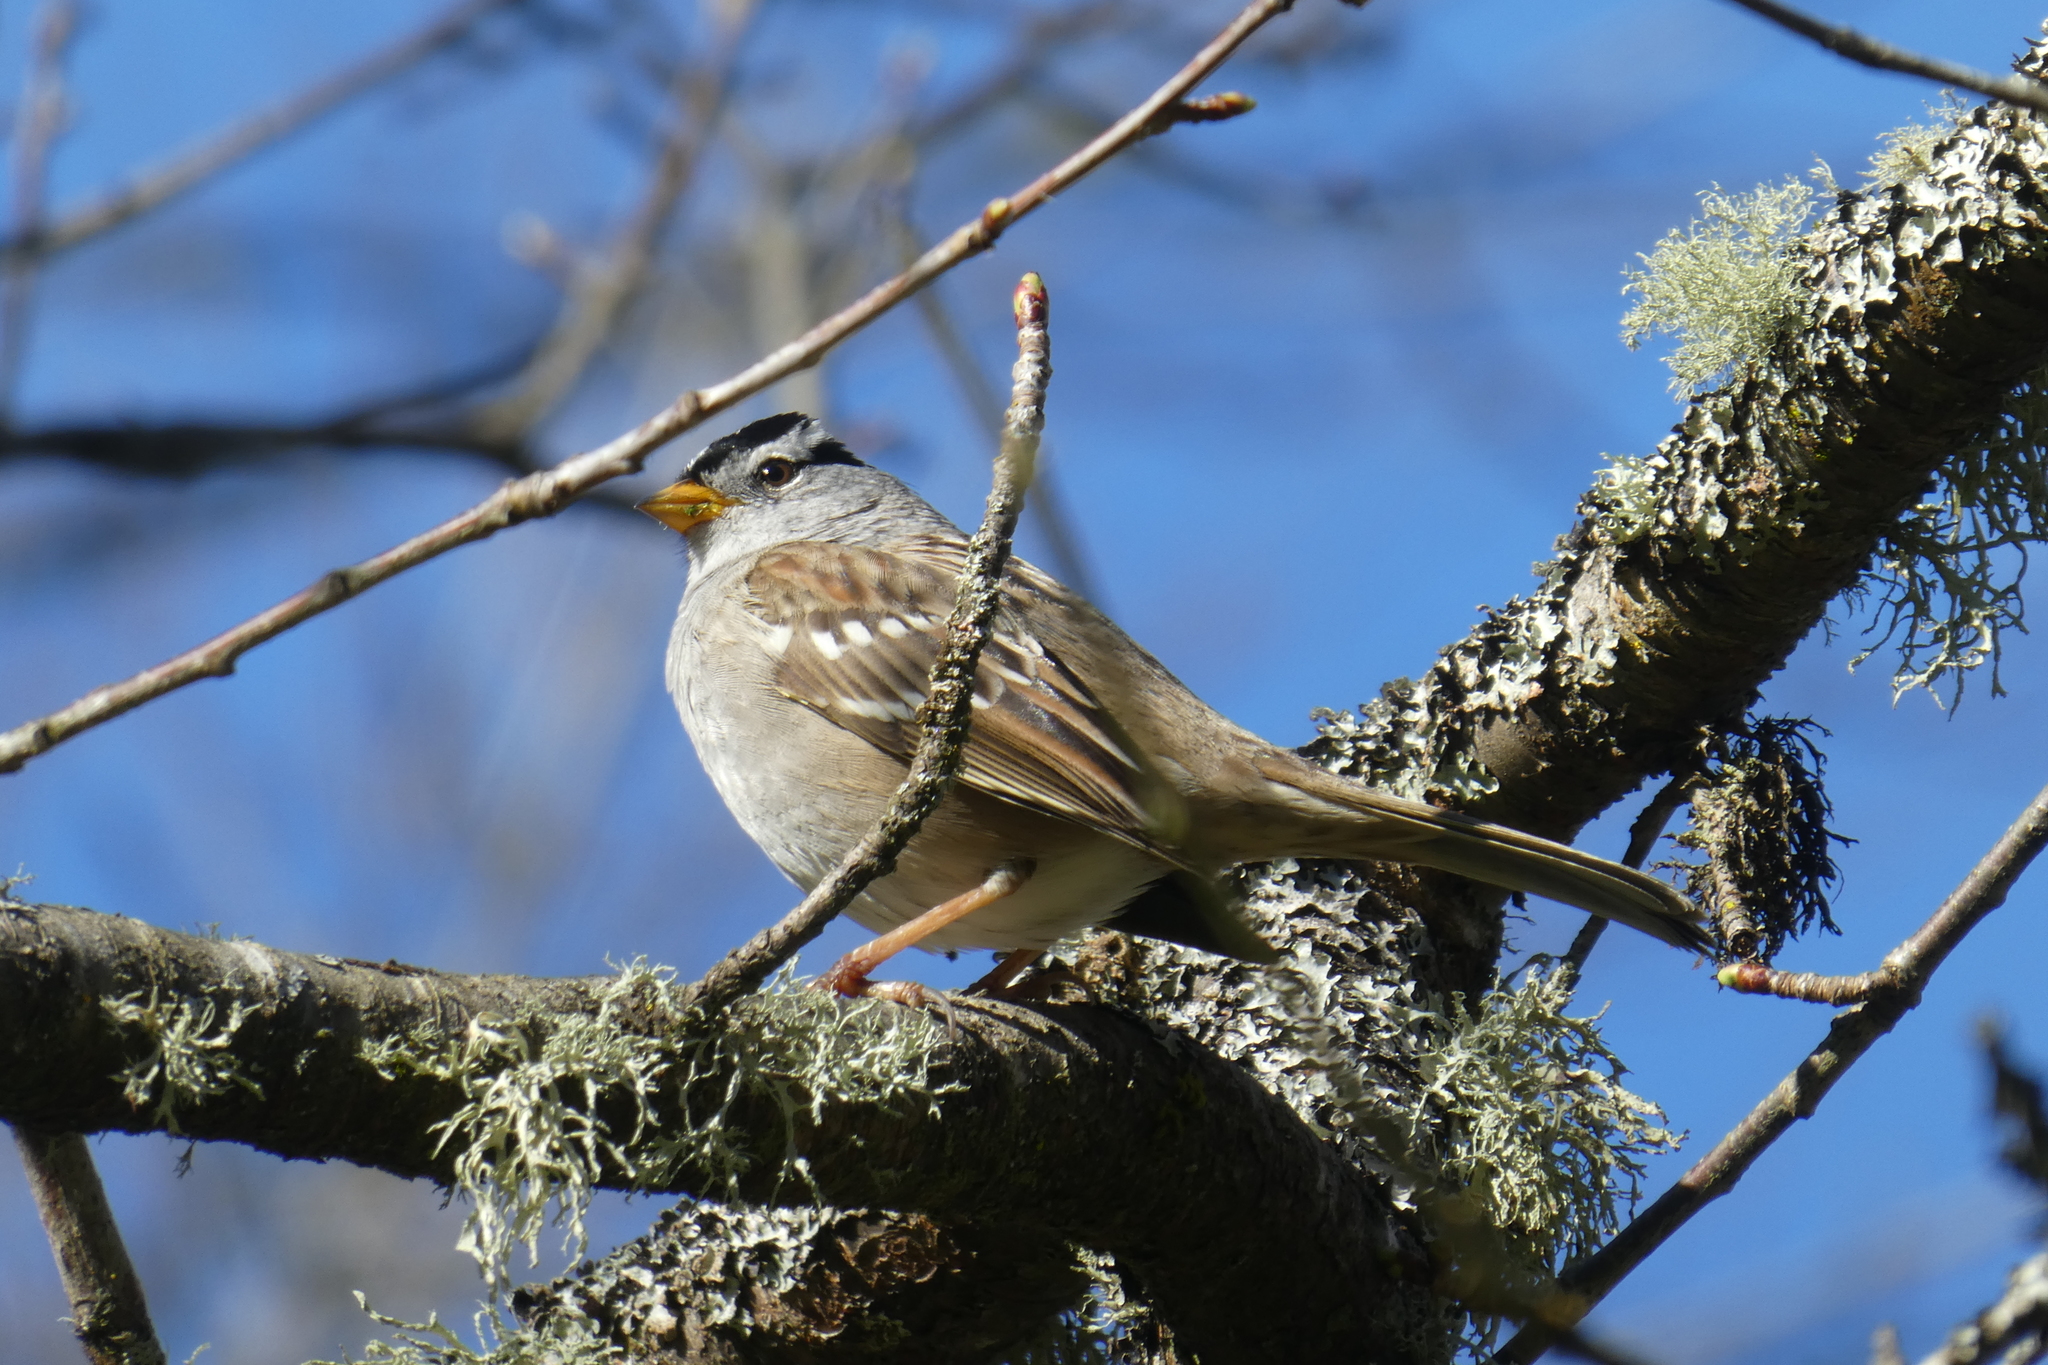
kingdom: Animalia
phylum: Chordata
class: Aves
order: Passeriformes
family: Passerellidae
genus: Zonotrichia
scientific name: Zonotrichia leucophrys
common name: White-crowned sparrow
